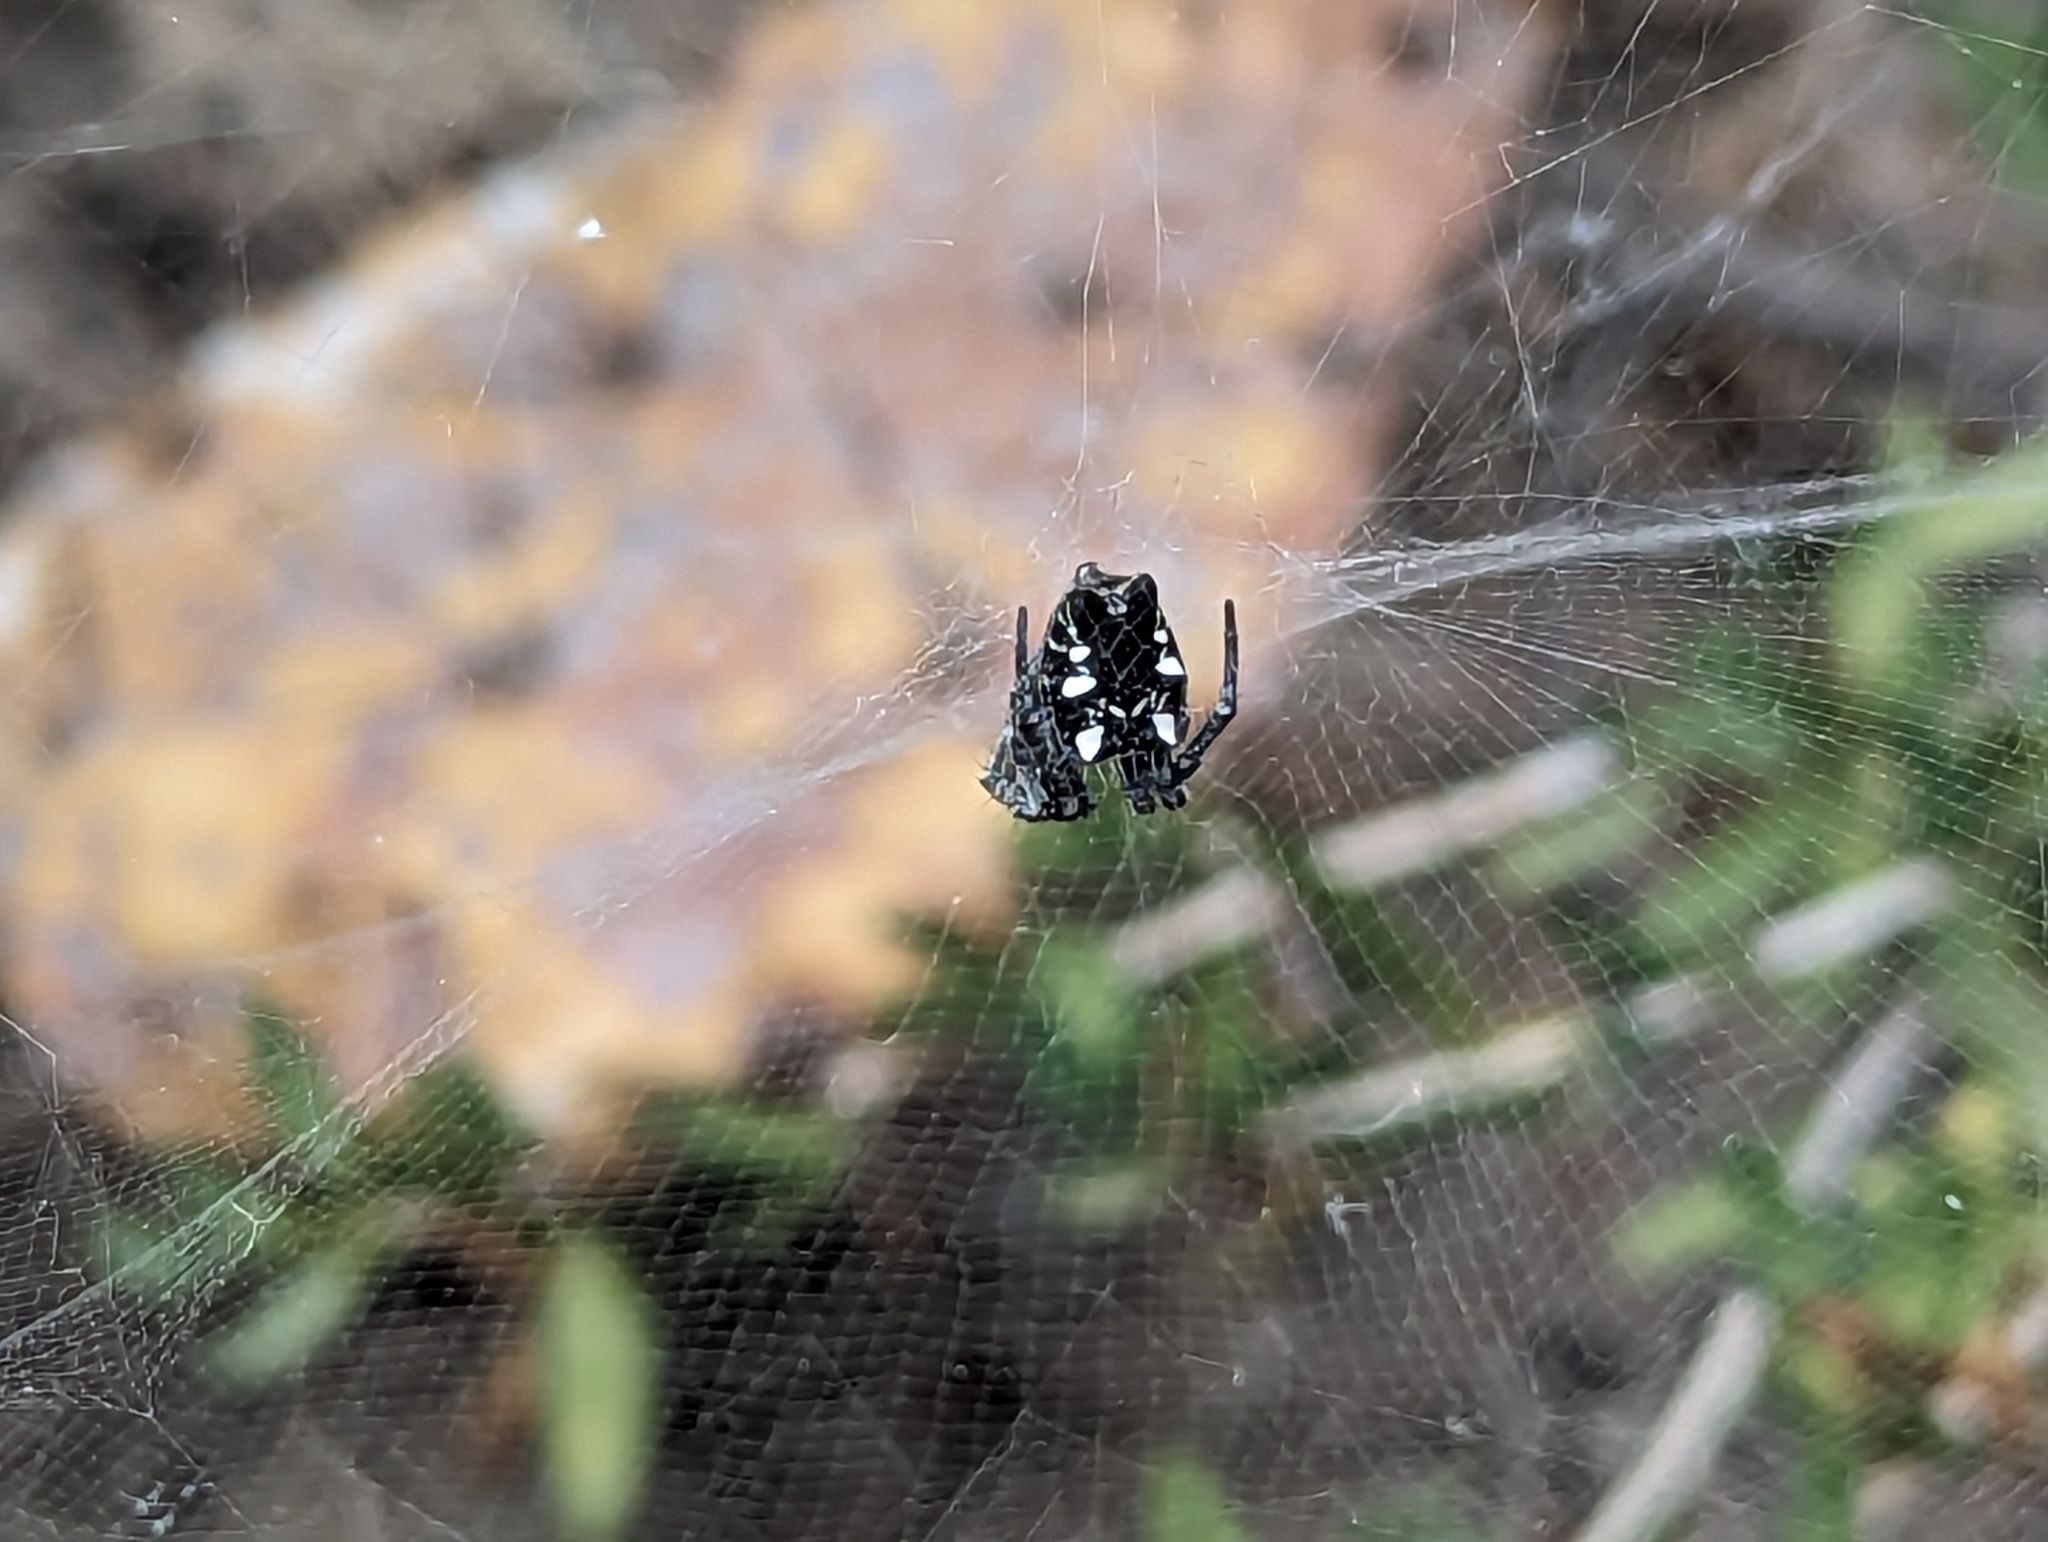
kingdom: Animalia
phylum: Arthropoda
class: Arachnida
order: Araneae
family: Araneidae
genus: Cyrtophora
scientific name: Cyrtophora citricola
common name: Orb weavers
